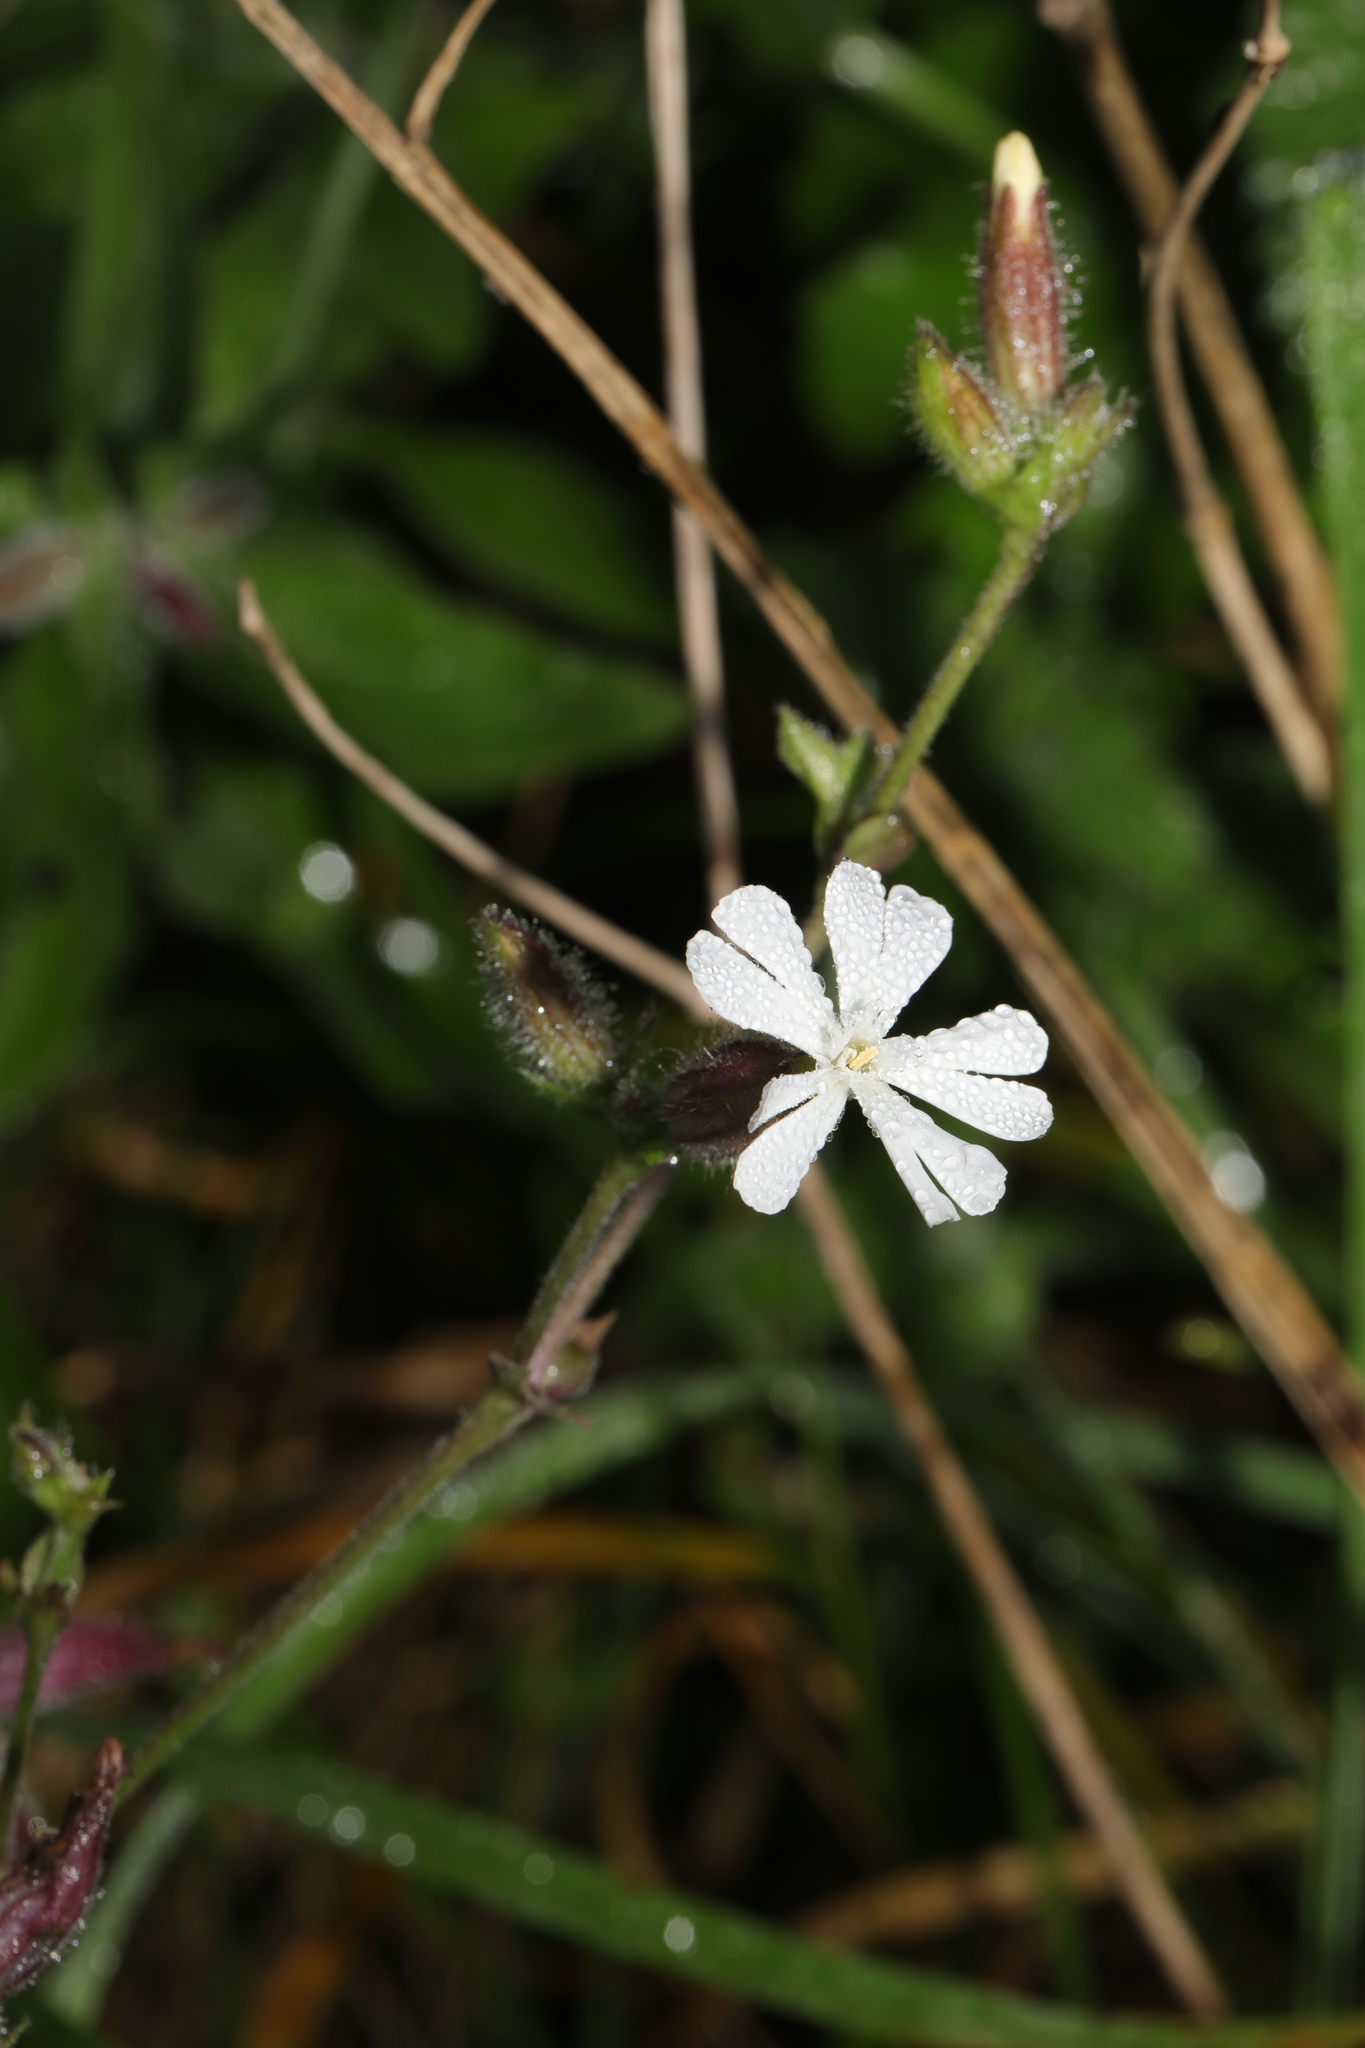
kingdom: Plantae
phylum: Tracheophyta
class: Magnoliopsida
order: Caryophyllales
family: Caryophyllaceae
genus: Silene
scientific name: Silene latifolia
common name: White campion
